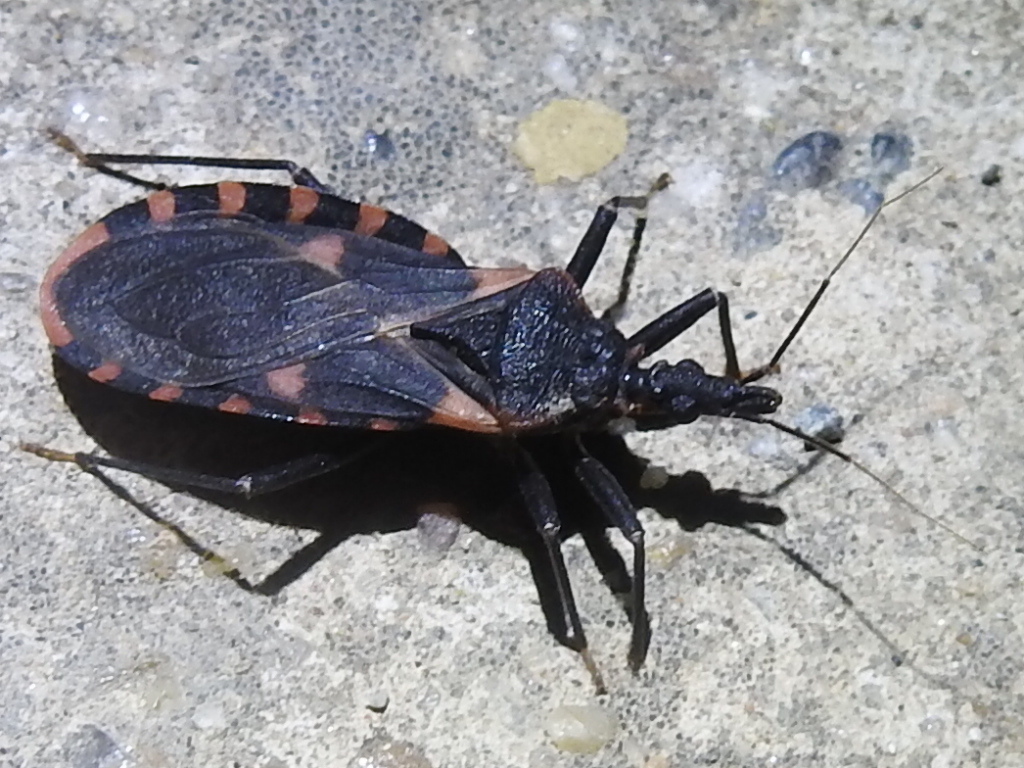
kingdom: Animalia
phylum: Arthropoda
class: Insecta
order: Hemiptera
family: Reduviidae
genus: Triatoma
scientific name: Triatoma sanguisuga
